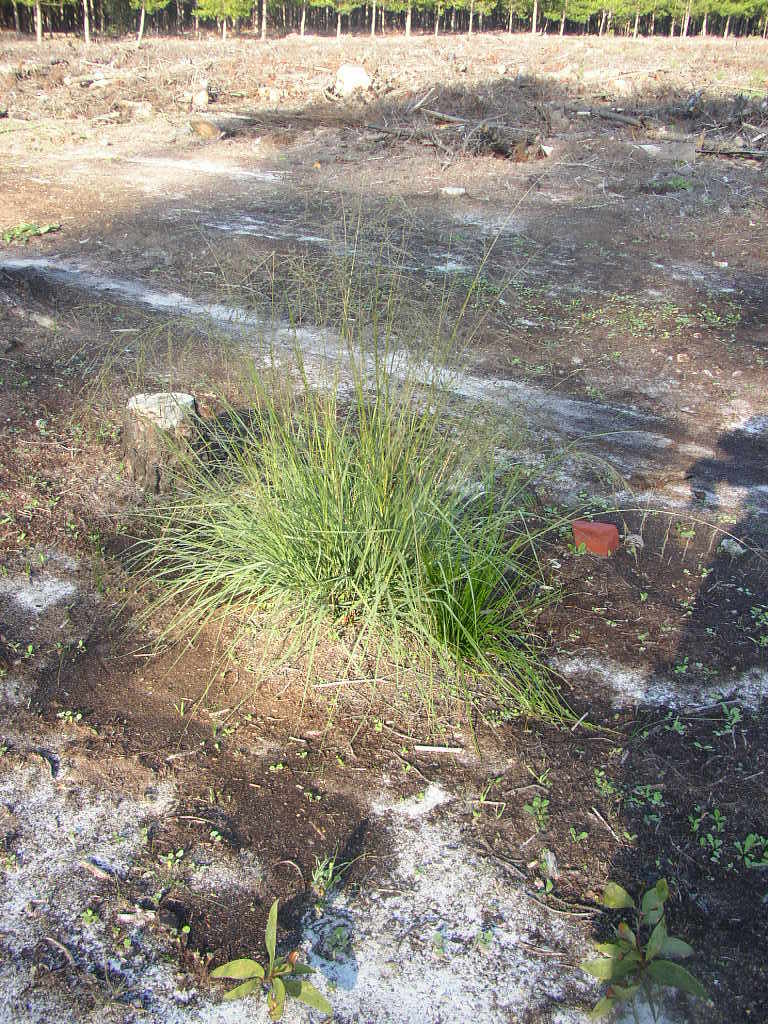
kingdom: Plantae
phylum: Tracheophyta
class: Liliopsida
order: Poales
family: Poaceae
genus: Eragrostis
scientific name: Eragrostis curvula
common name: African love-grass
